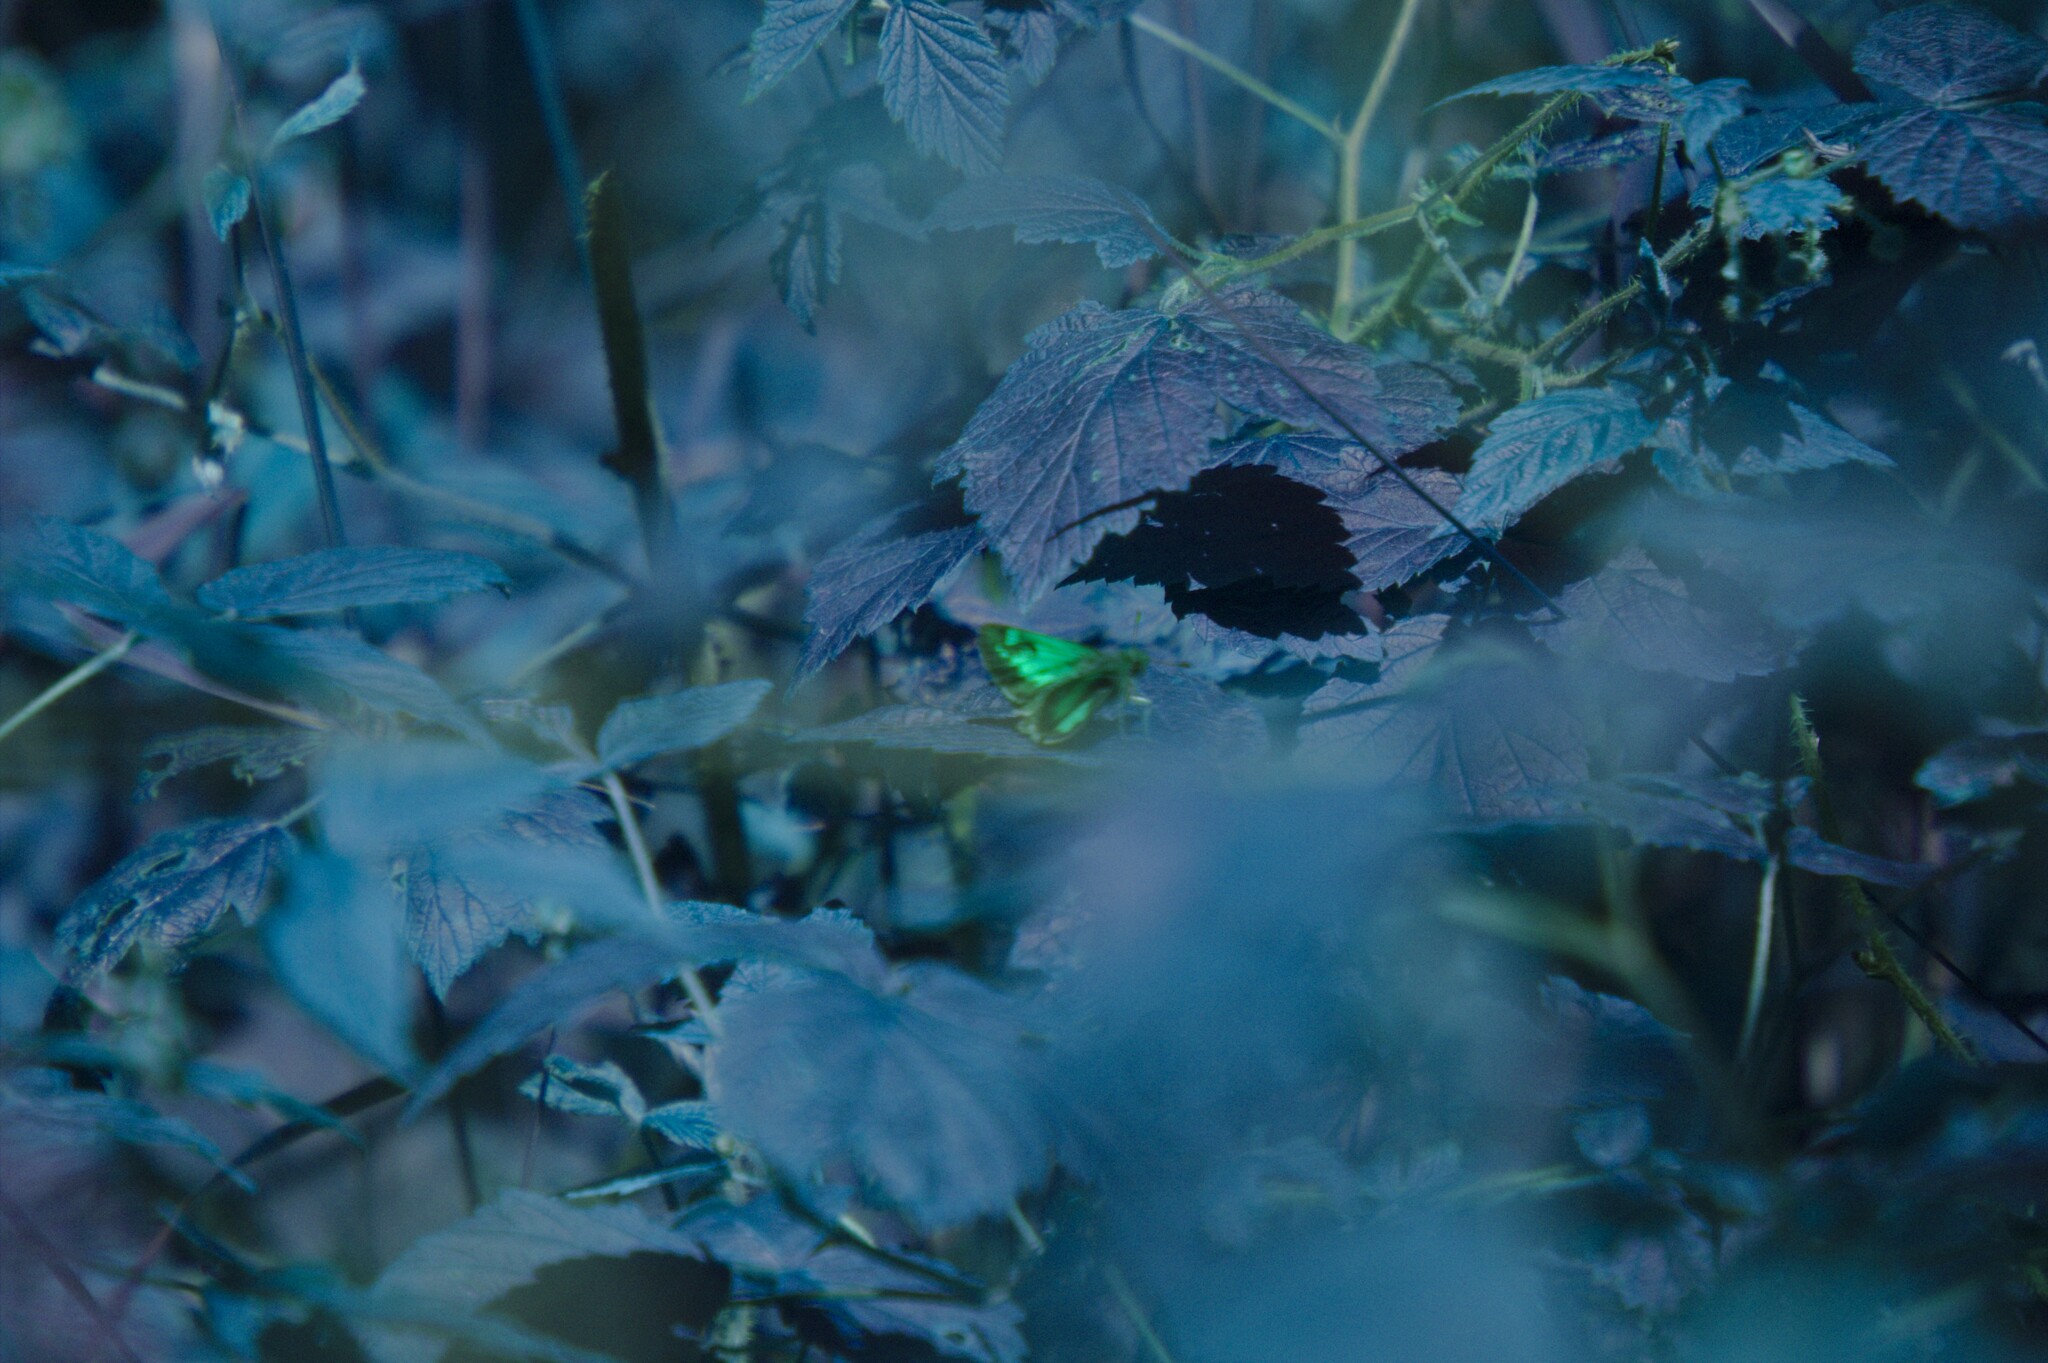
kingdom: Plantae
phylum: Tracheophyta
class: Magnoliopsida
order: Rosales
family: Rosaceae
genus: Rubus
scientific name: Rubus idaeus
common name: Raspberry
